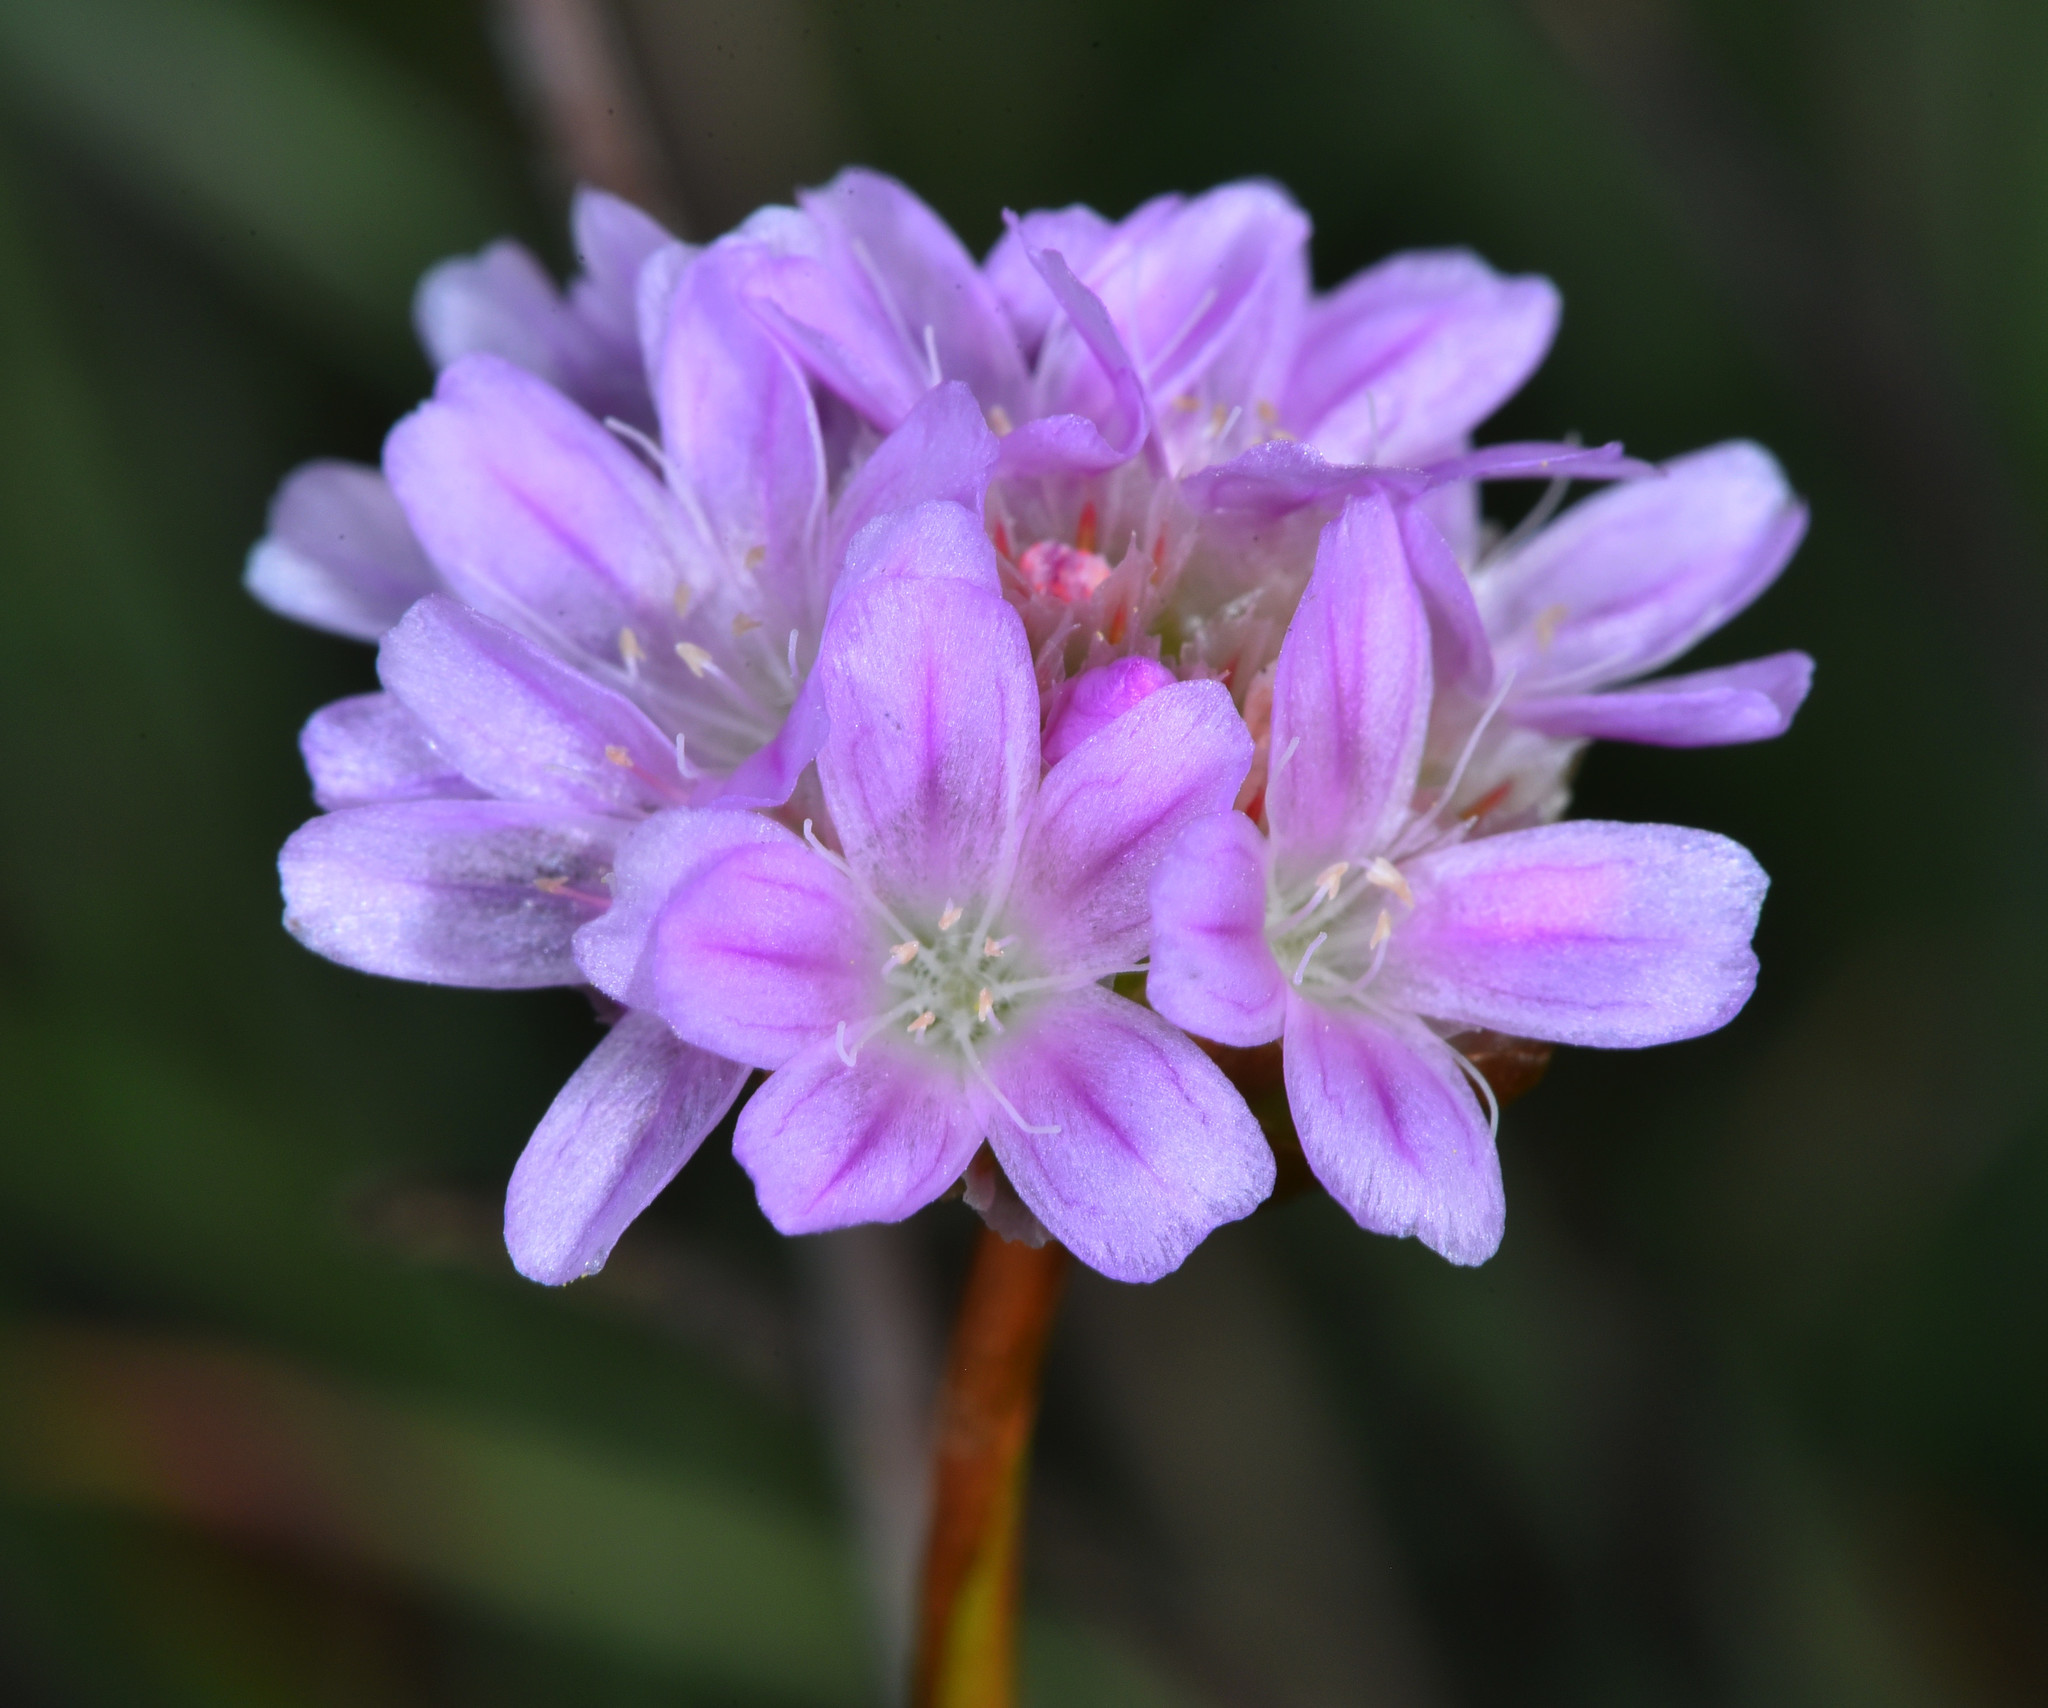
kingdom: Plantae
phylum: Tracheophyta
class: Magnoliopsida
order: Caryophyllales
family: Plumbaginaceae
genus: Armeria
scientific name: Armeria maritima
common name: Thrift
